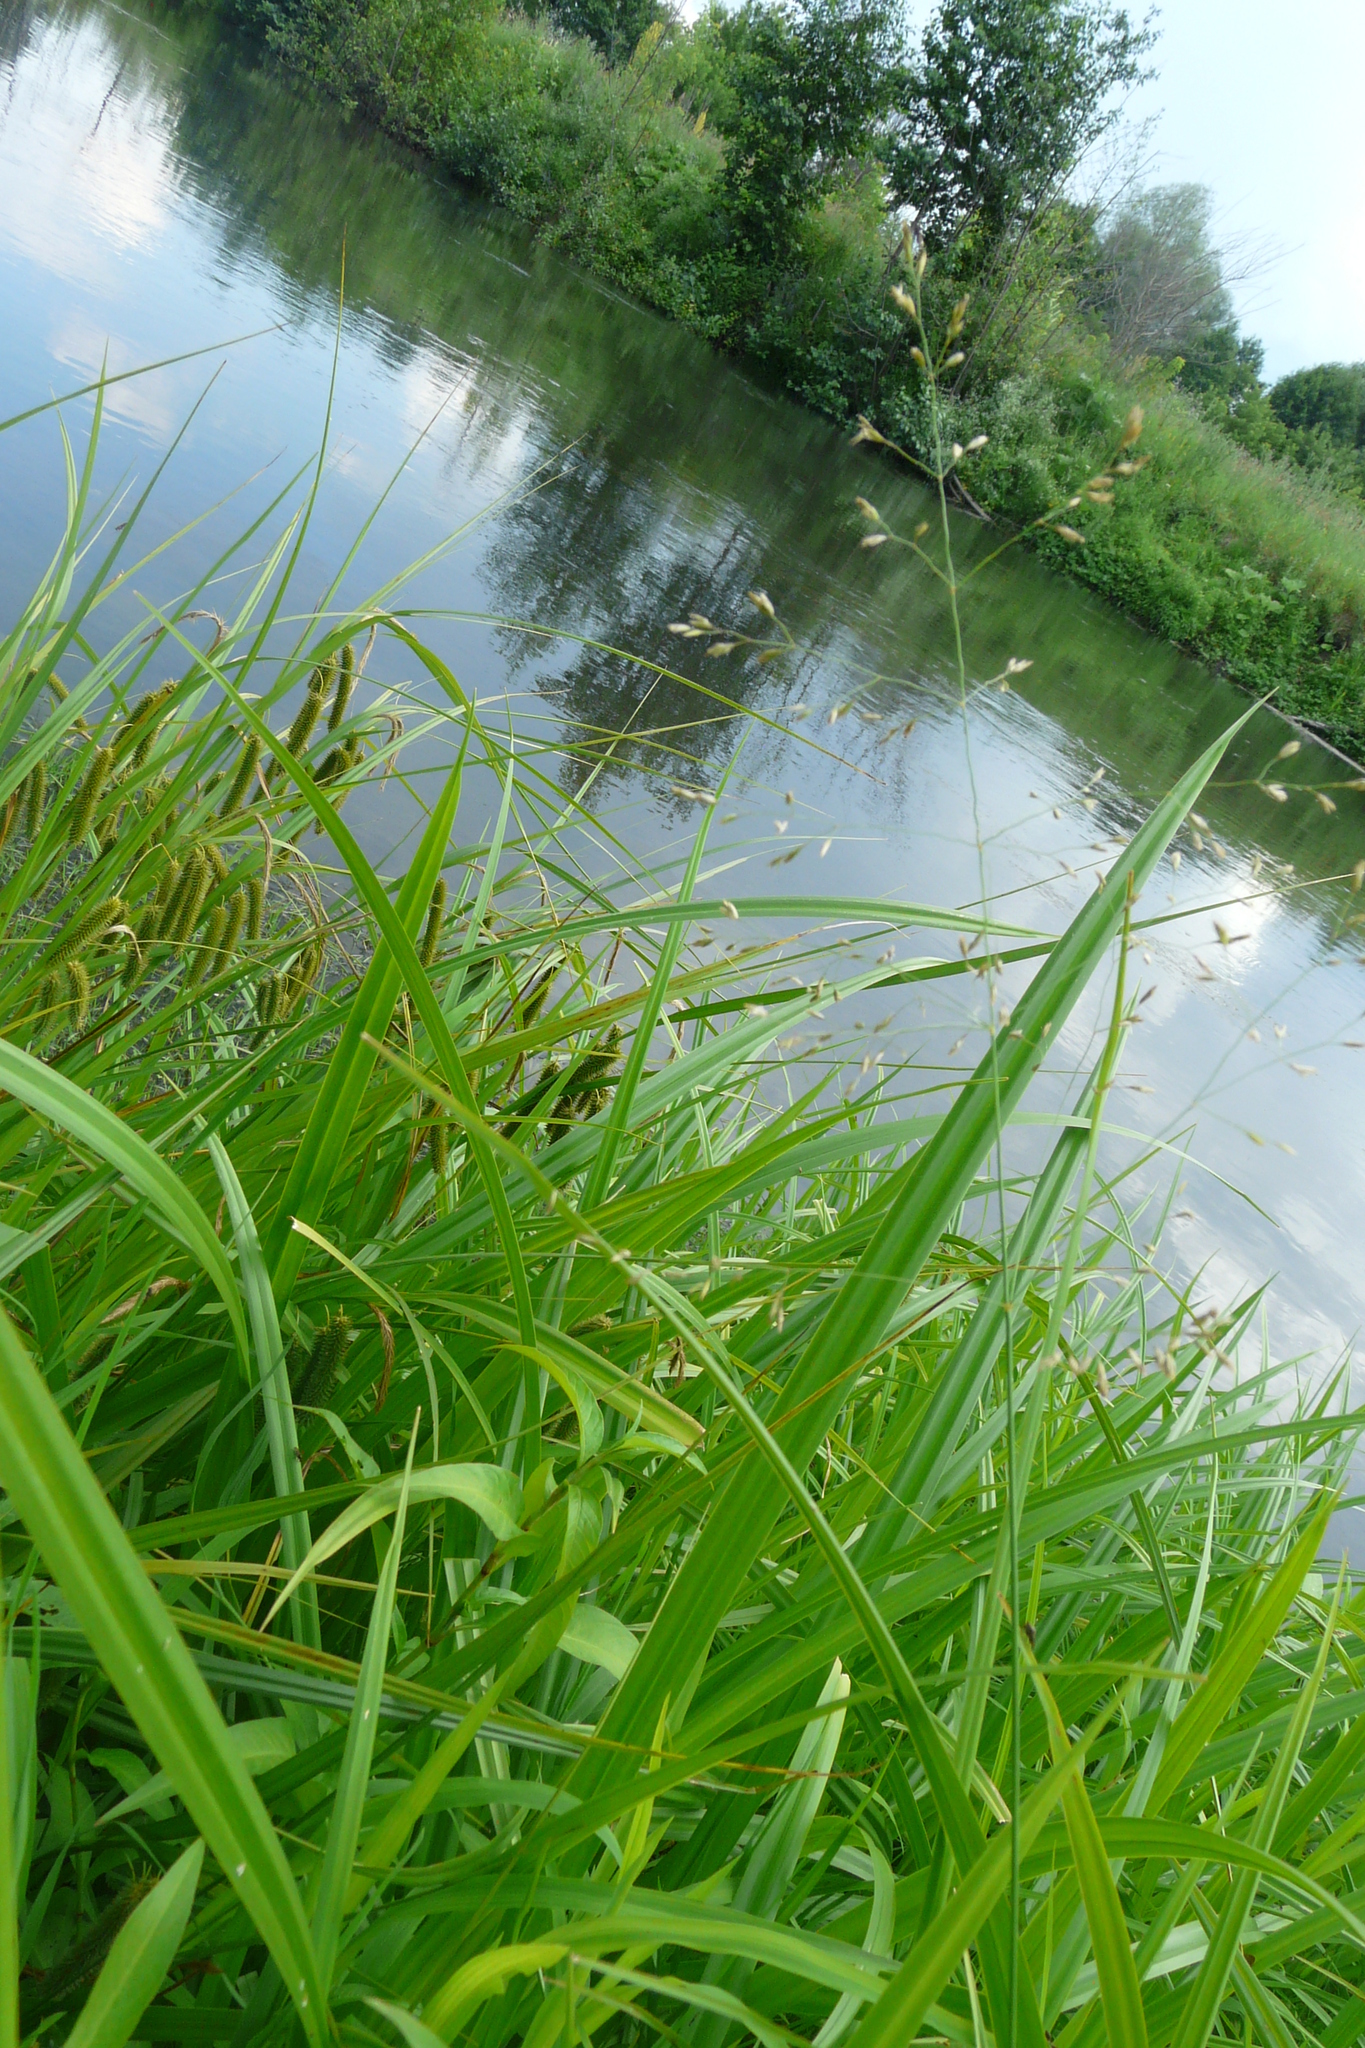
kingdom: Plantae
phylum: Tracheophyta
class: Liliopsida
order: Poales
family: Poaceae
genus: Poa
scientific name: Poa palustris
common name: Swamp meadow-grass
